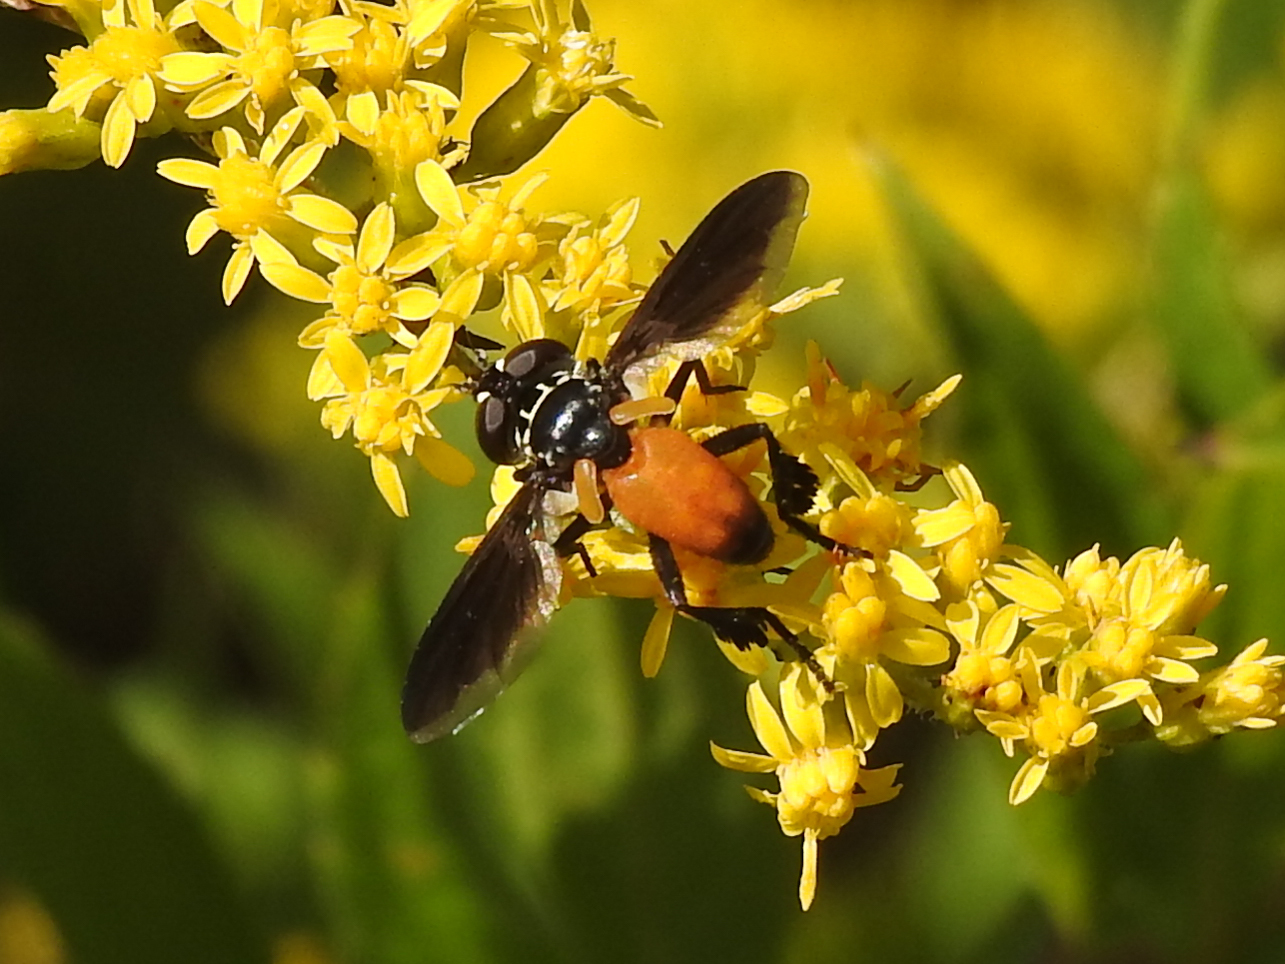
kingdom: Animalia
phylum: Arthropoda
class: Insecta
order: Diptera
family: Tachinidae
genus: Trichopoda
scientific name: Trichopoda pennipes
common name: Tachinid fly
